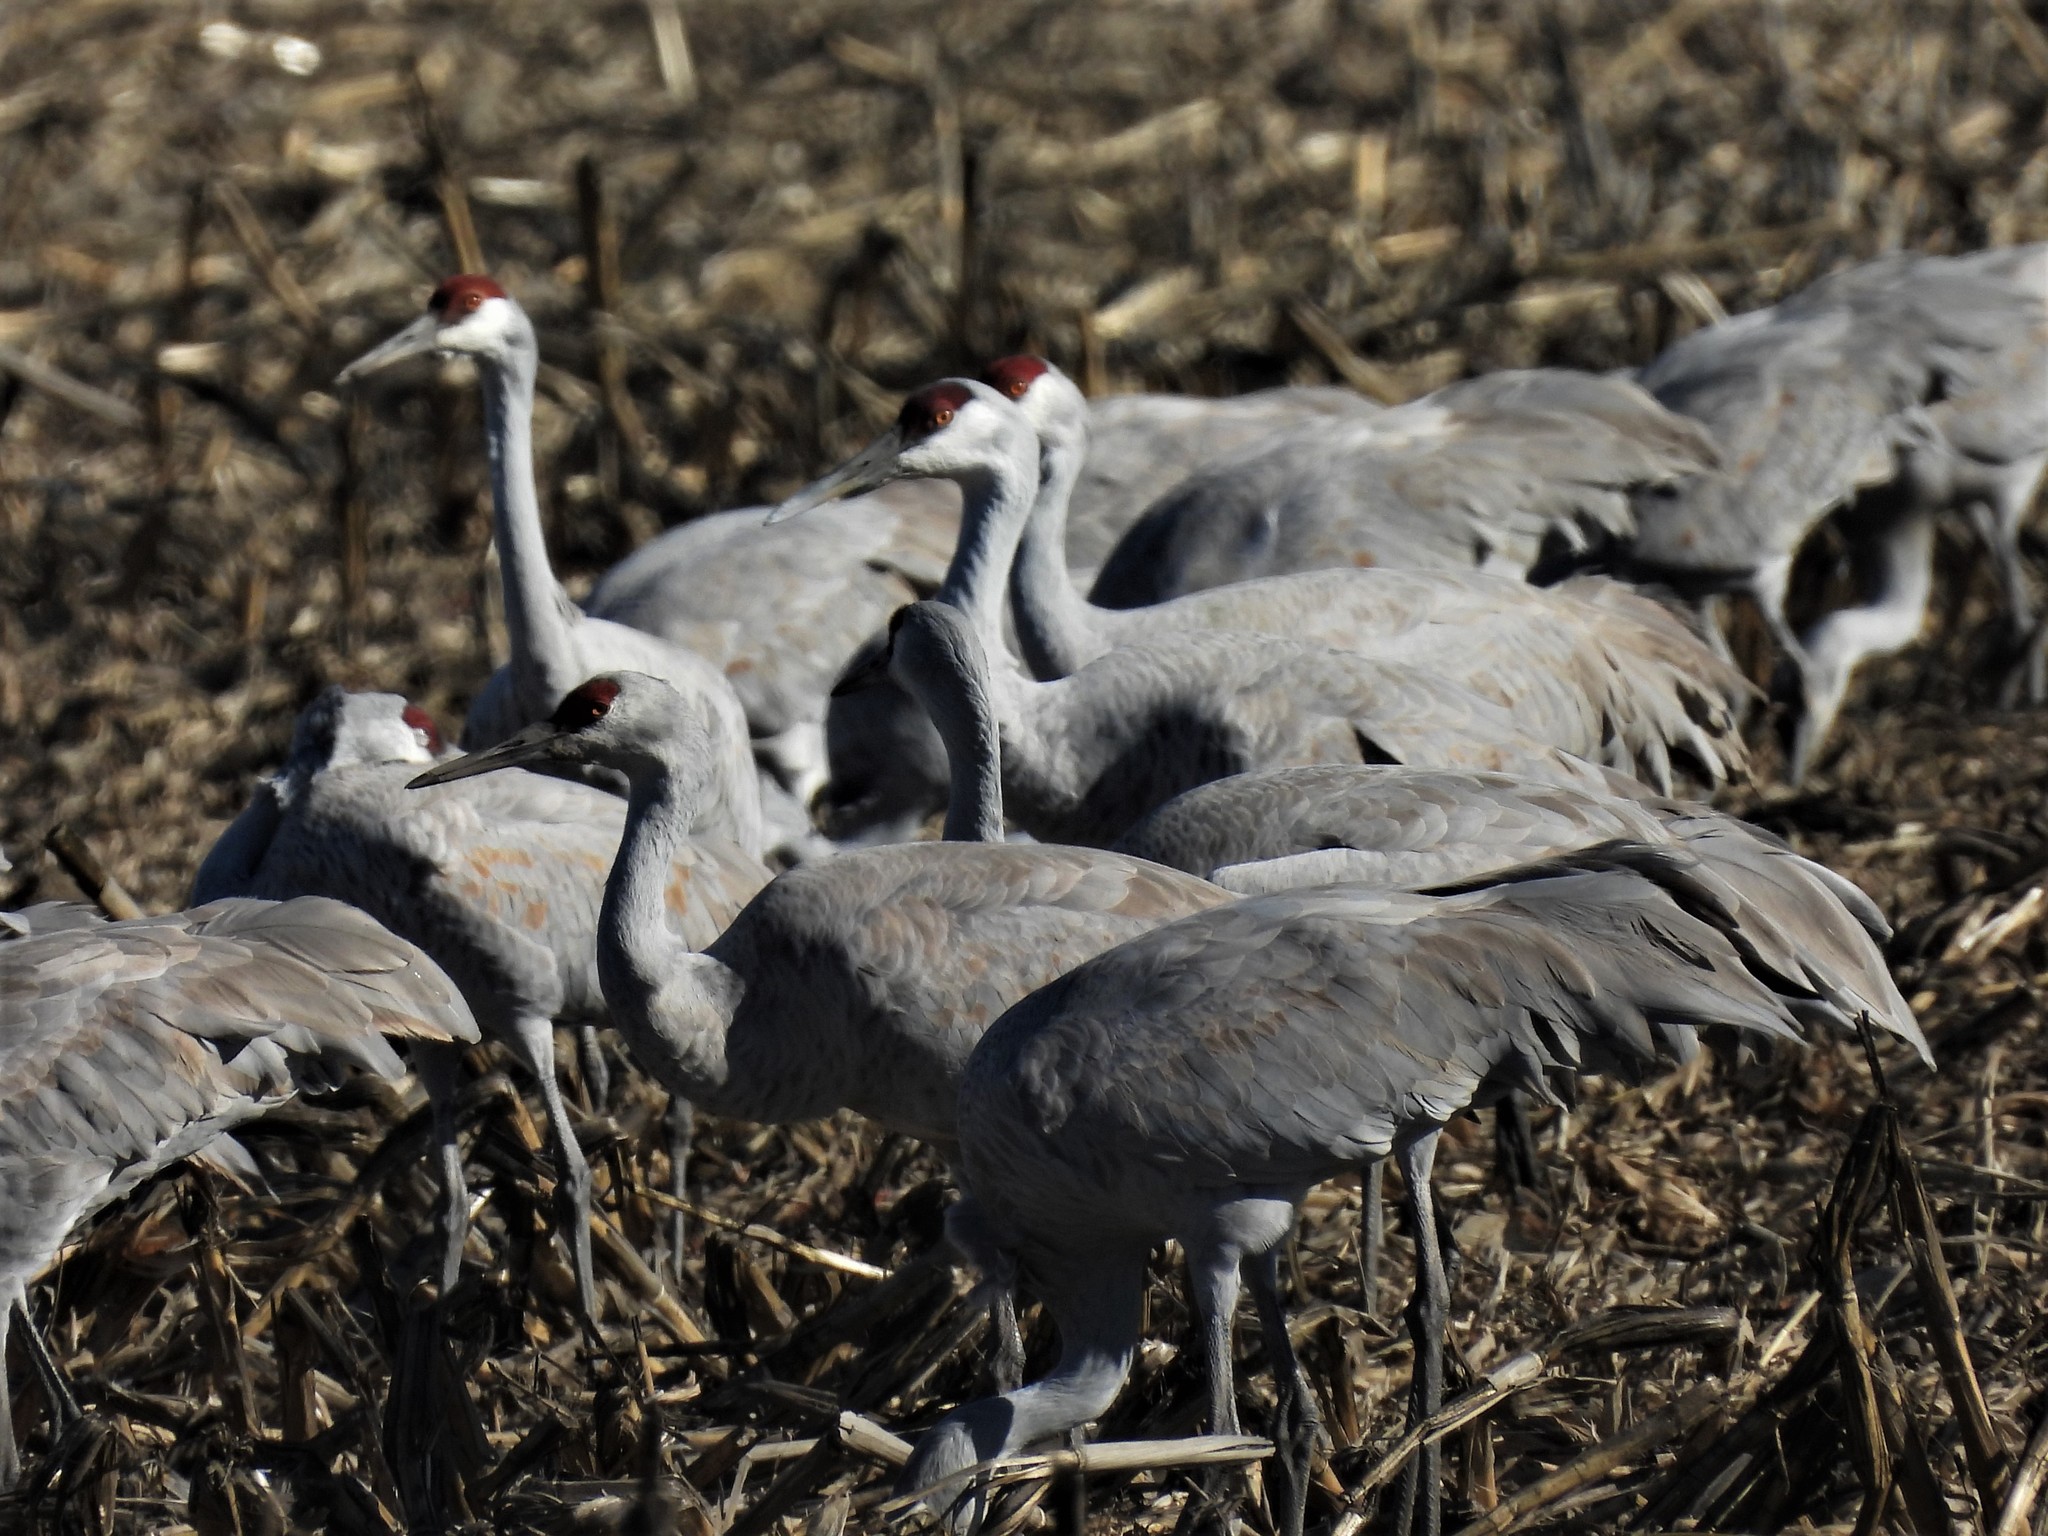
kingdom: Animalia
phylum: Chordata
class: Aves
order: Gruiformes
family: Gruidae
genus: Grus
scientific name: Grus canadensis
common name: Sandhill crane
